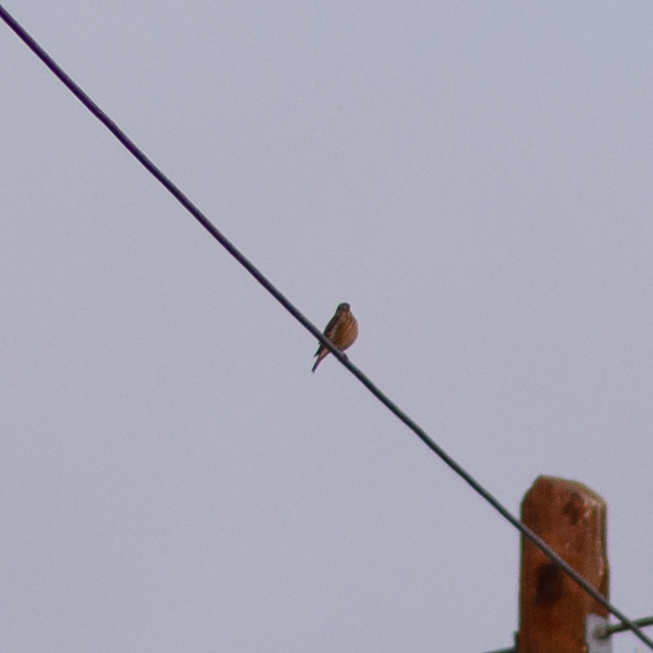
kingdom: Animalia
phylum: Chordata
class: Aves
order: Passeriformes
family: Fringillidae
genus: Linaria
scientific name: Linaria cannabina
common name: Common linnet
